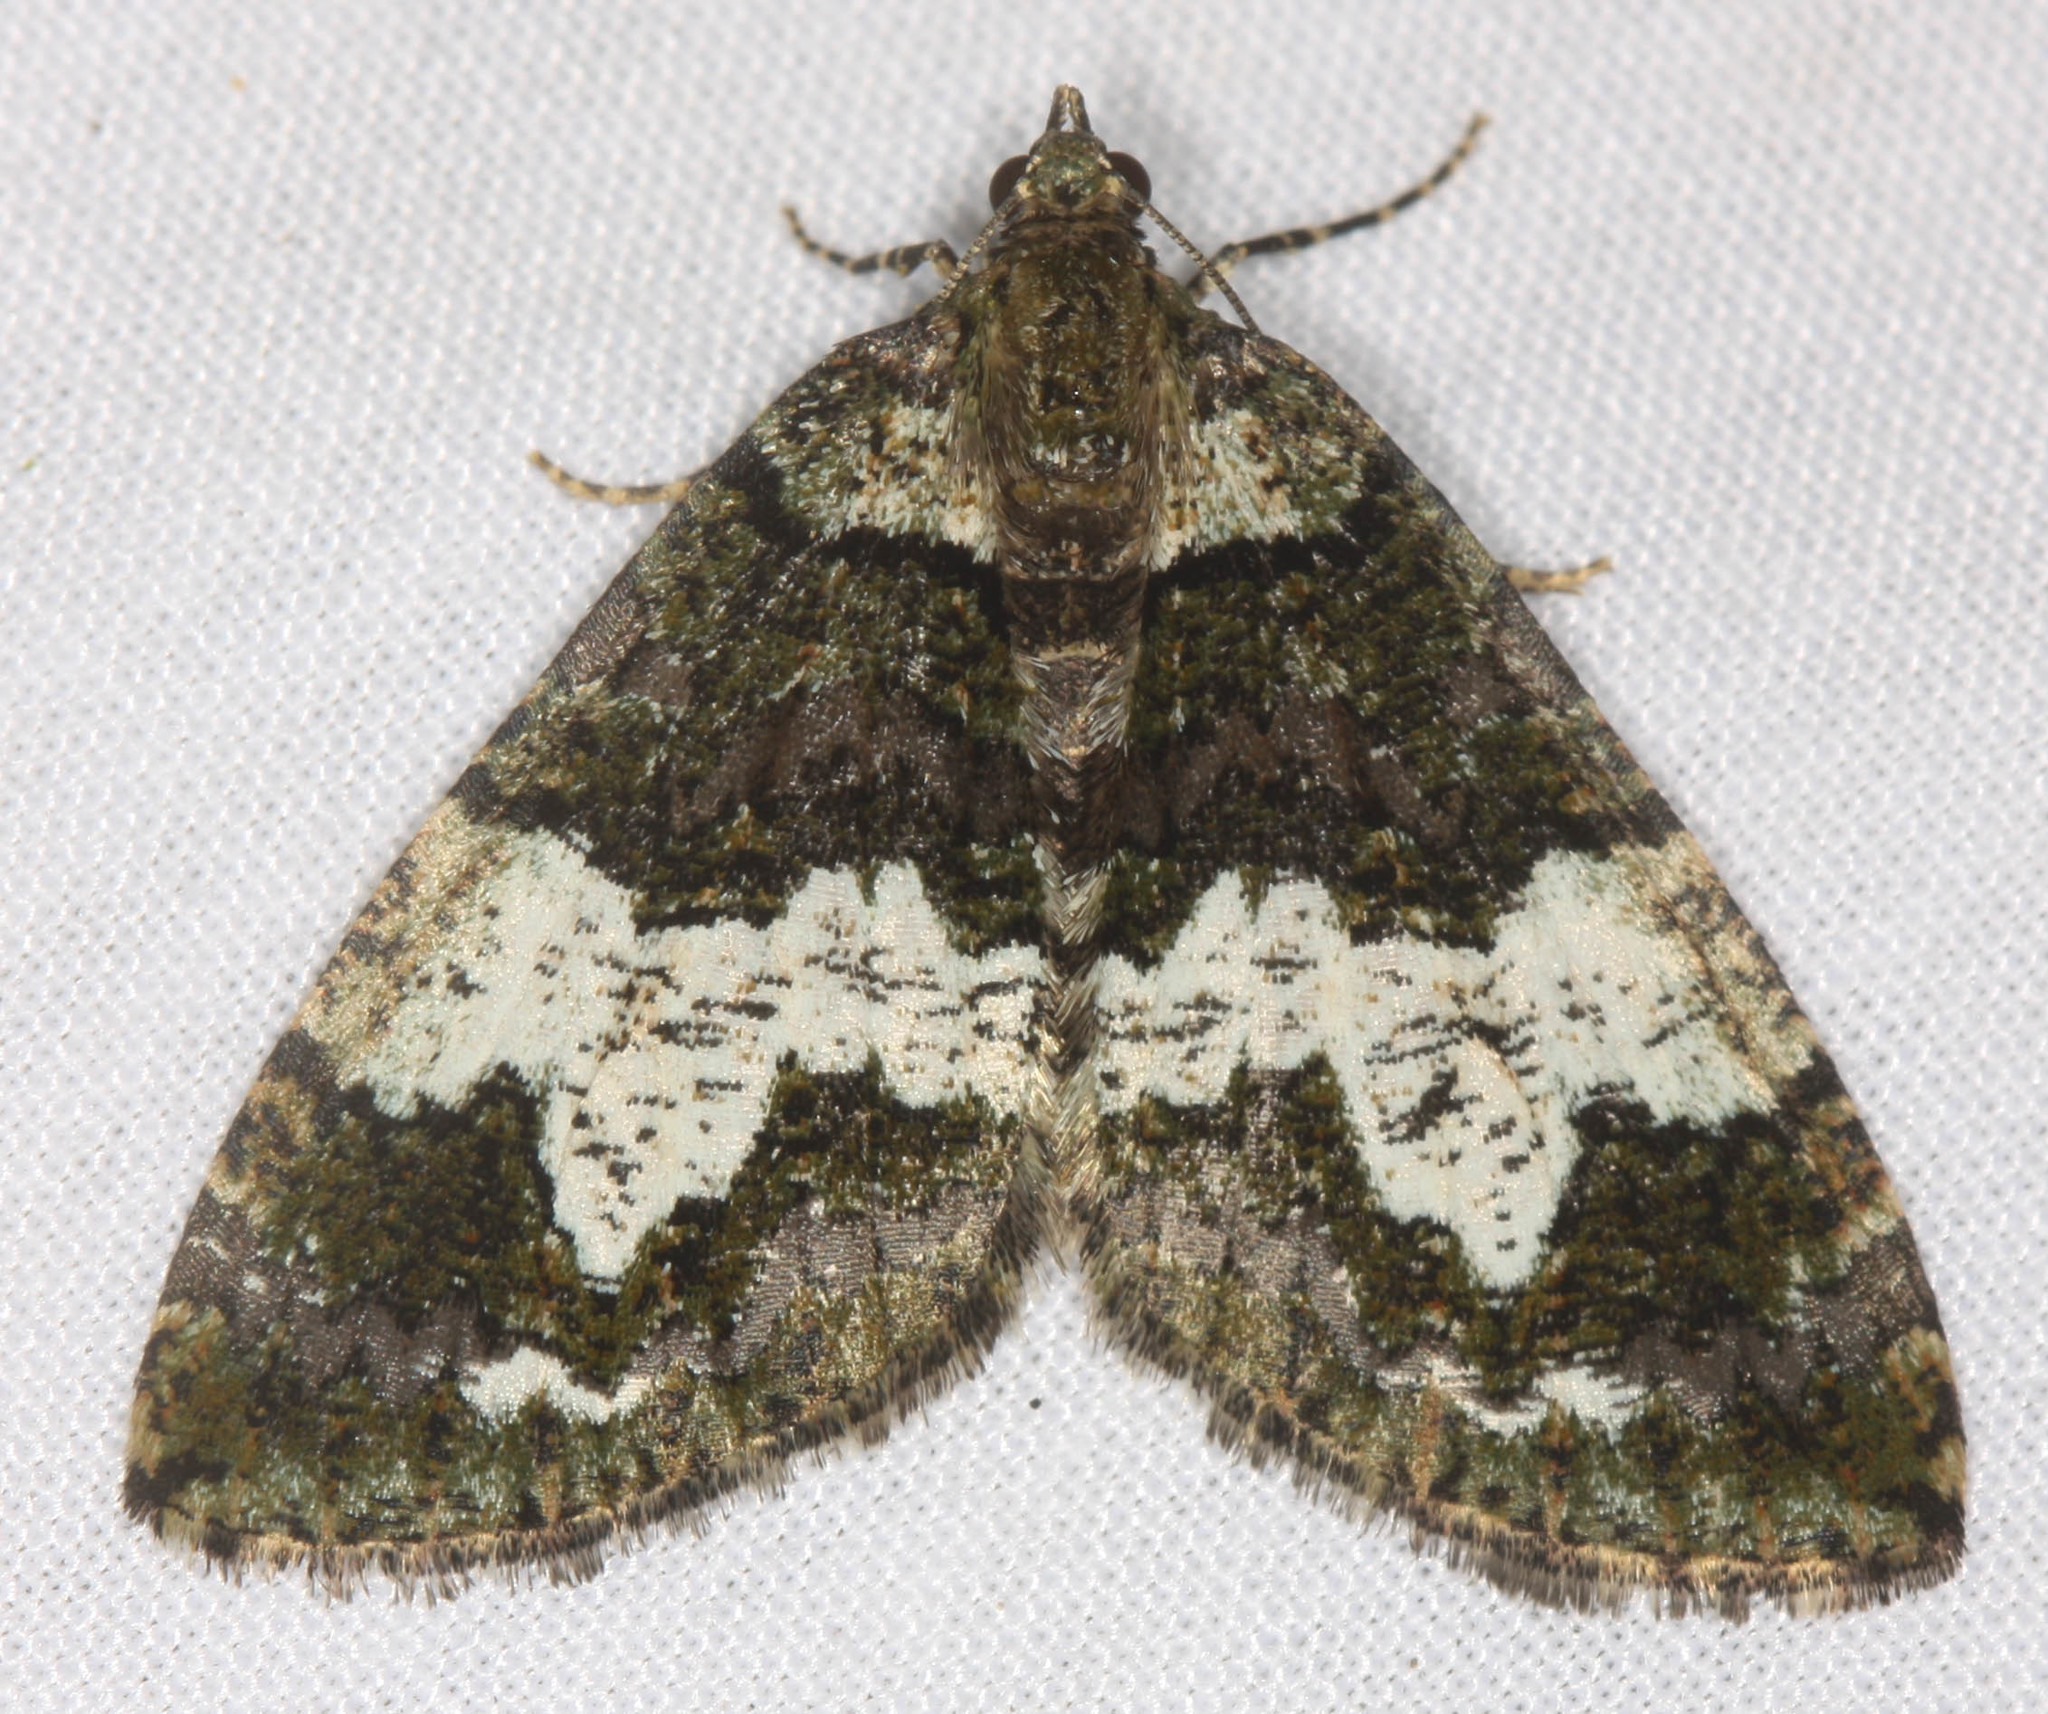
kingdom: Animalia
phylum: Arthropoda
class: Insecta
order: Lepidoptera
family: Geometridae
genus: Hydriomena
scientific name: Hydriomena albifasciata
